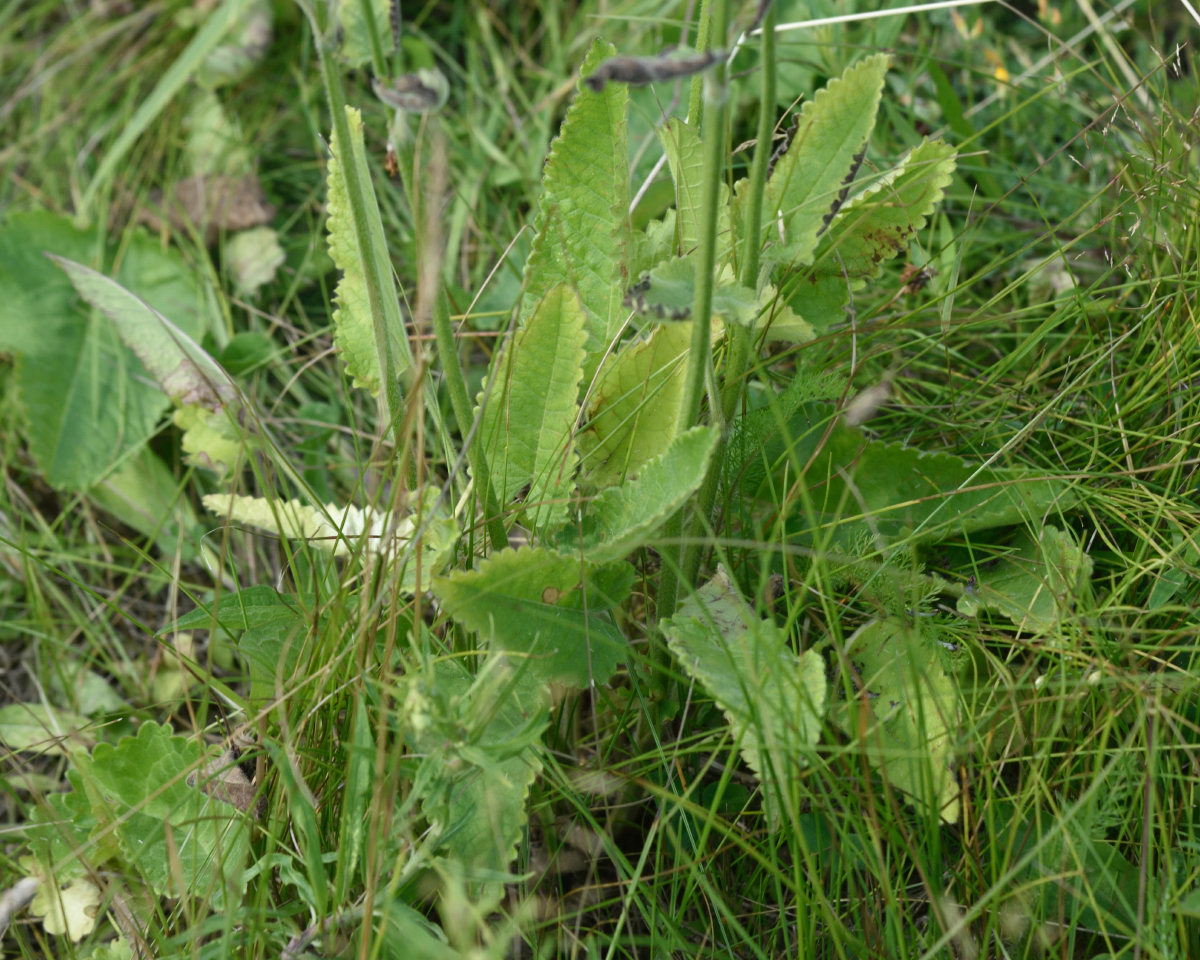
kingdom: Plantae
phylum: Tracheophyta
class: Magnoliopsida
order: Lamiales
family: Lamiaceae
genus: Betonica
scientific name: Betonica officinalis
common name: Bishop's-wort
